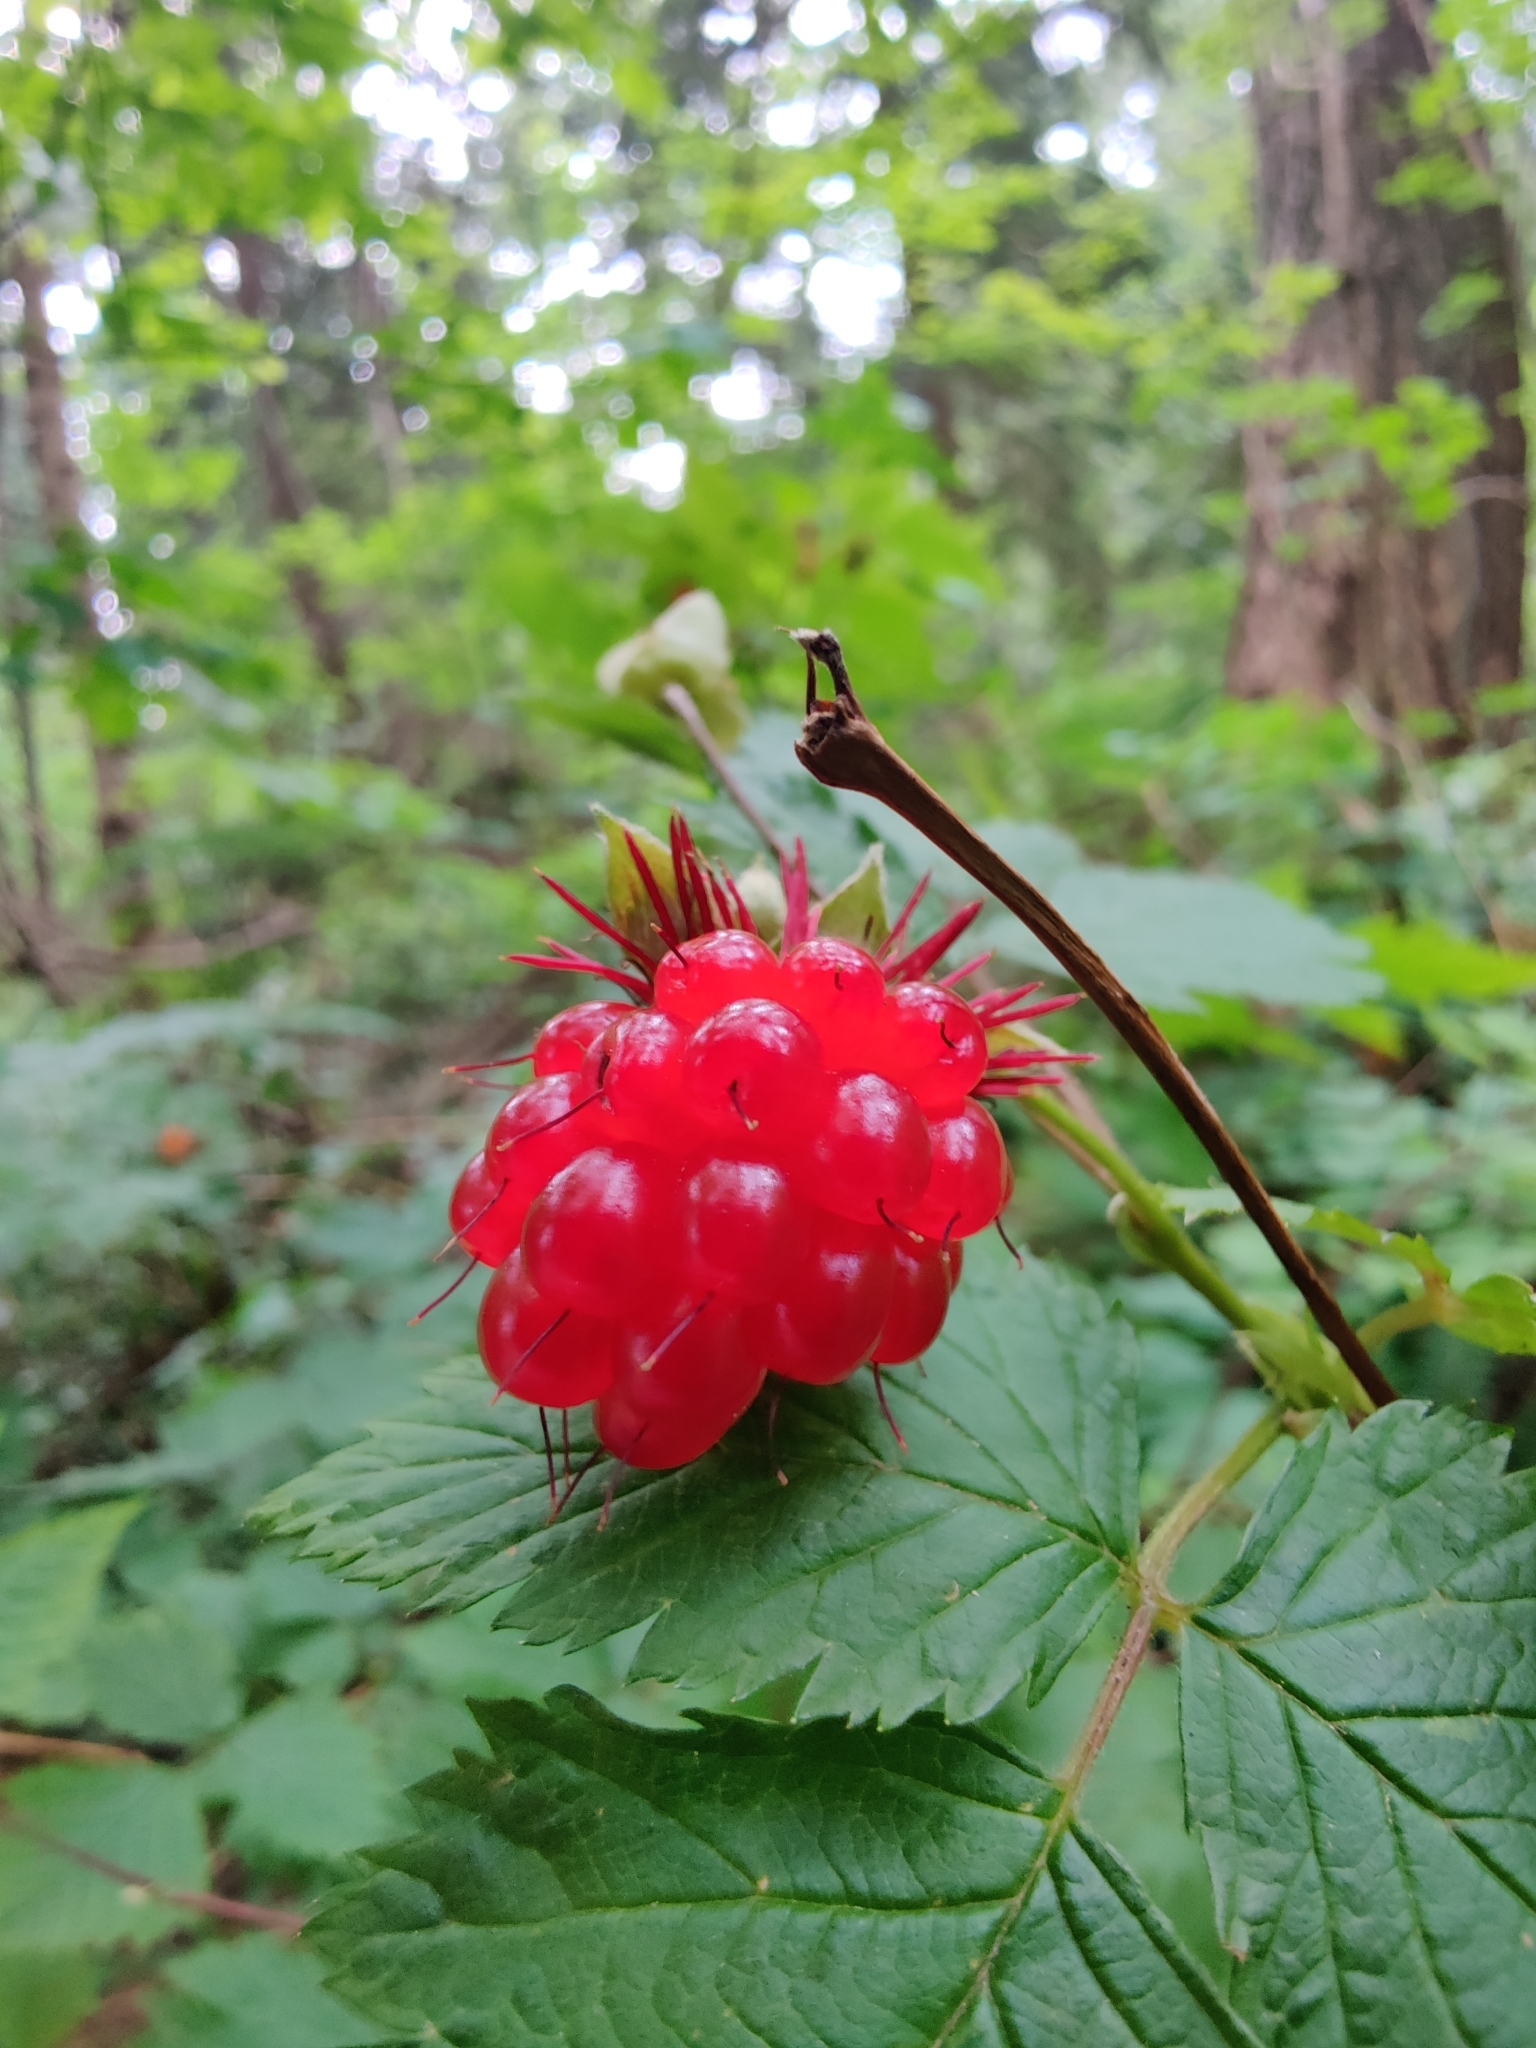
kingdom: Plantae
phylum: Tracheophyta
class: Magnoliopsida
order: Rosales
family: Rosaceae
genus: Rubus
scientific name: Rubus spectabilis
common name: Salmonberry
